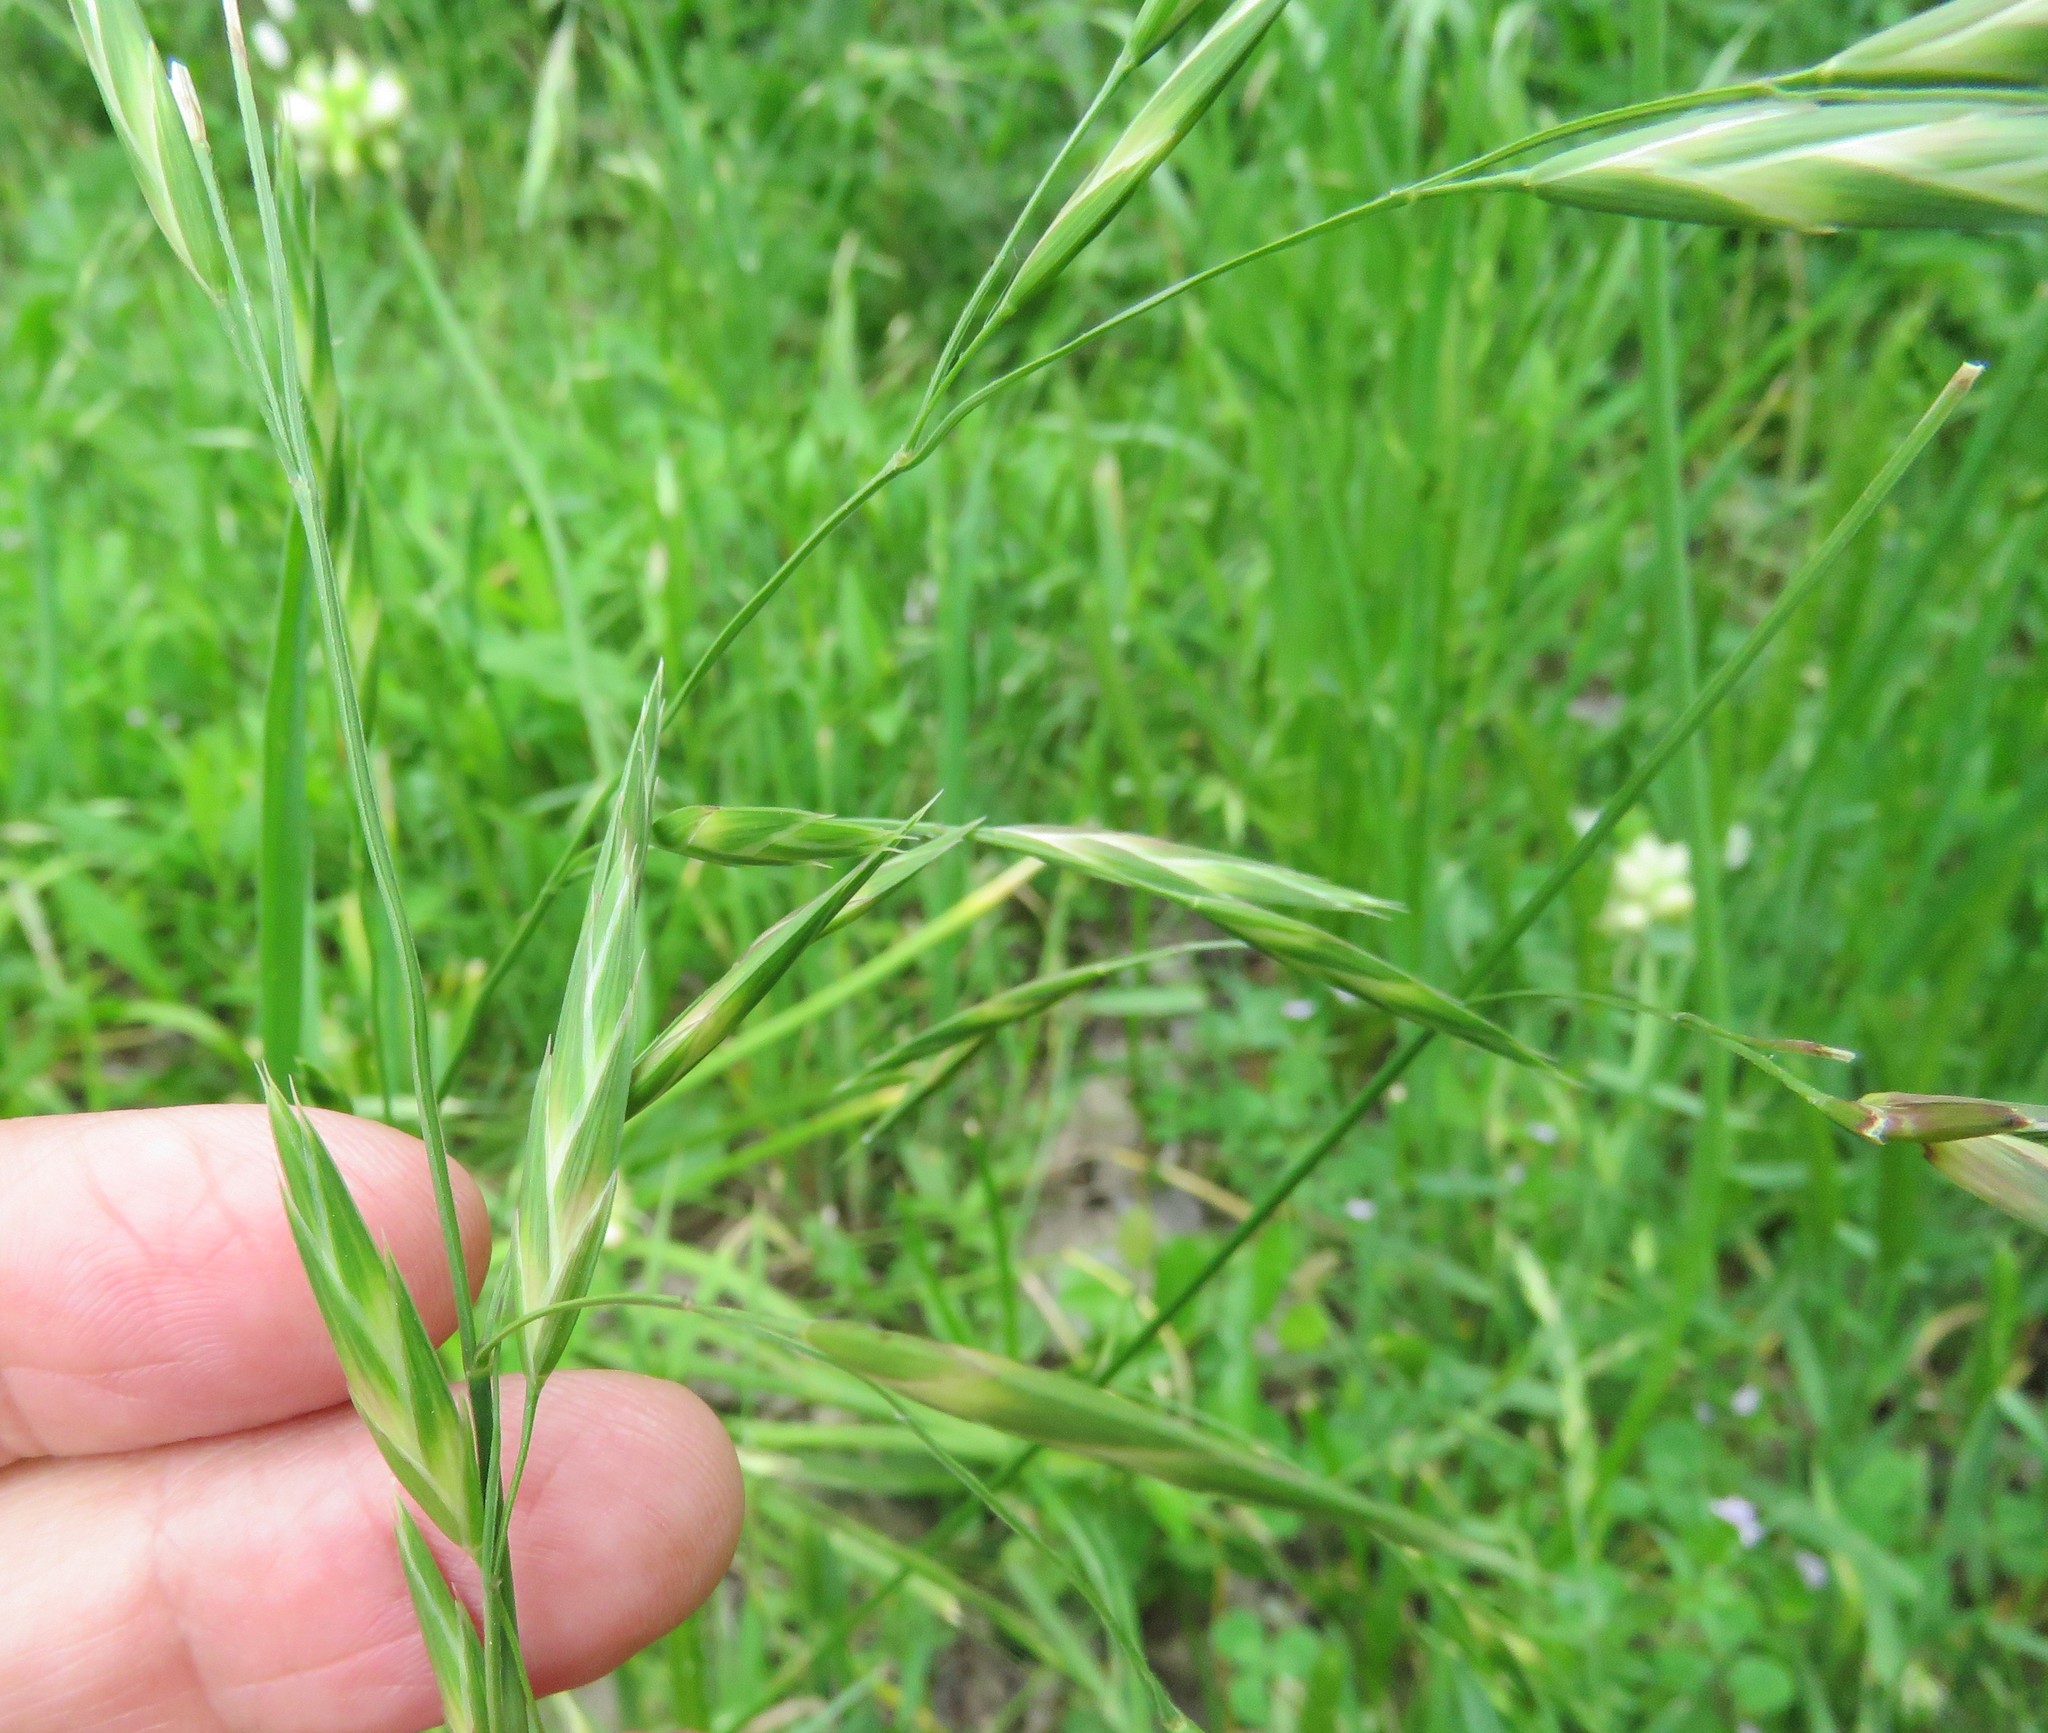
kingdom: Plantae
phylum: Tracheophyta
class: Liliopsida
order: Poales
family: Poaceae
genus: Bromus
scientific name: Bromus catharticus
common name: Rescuegrass
